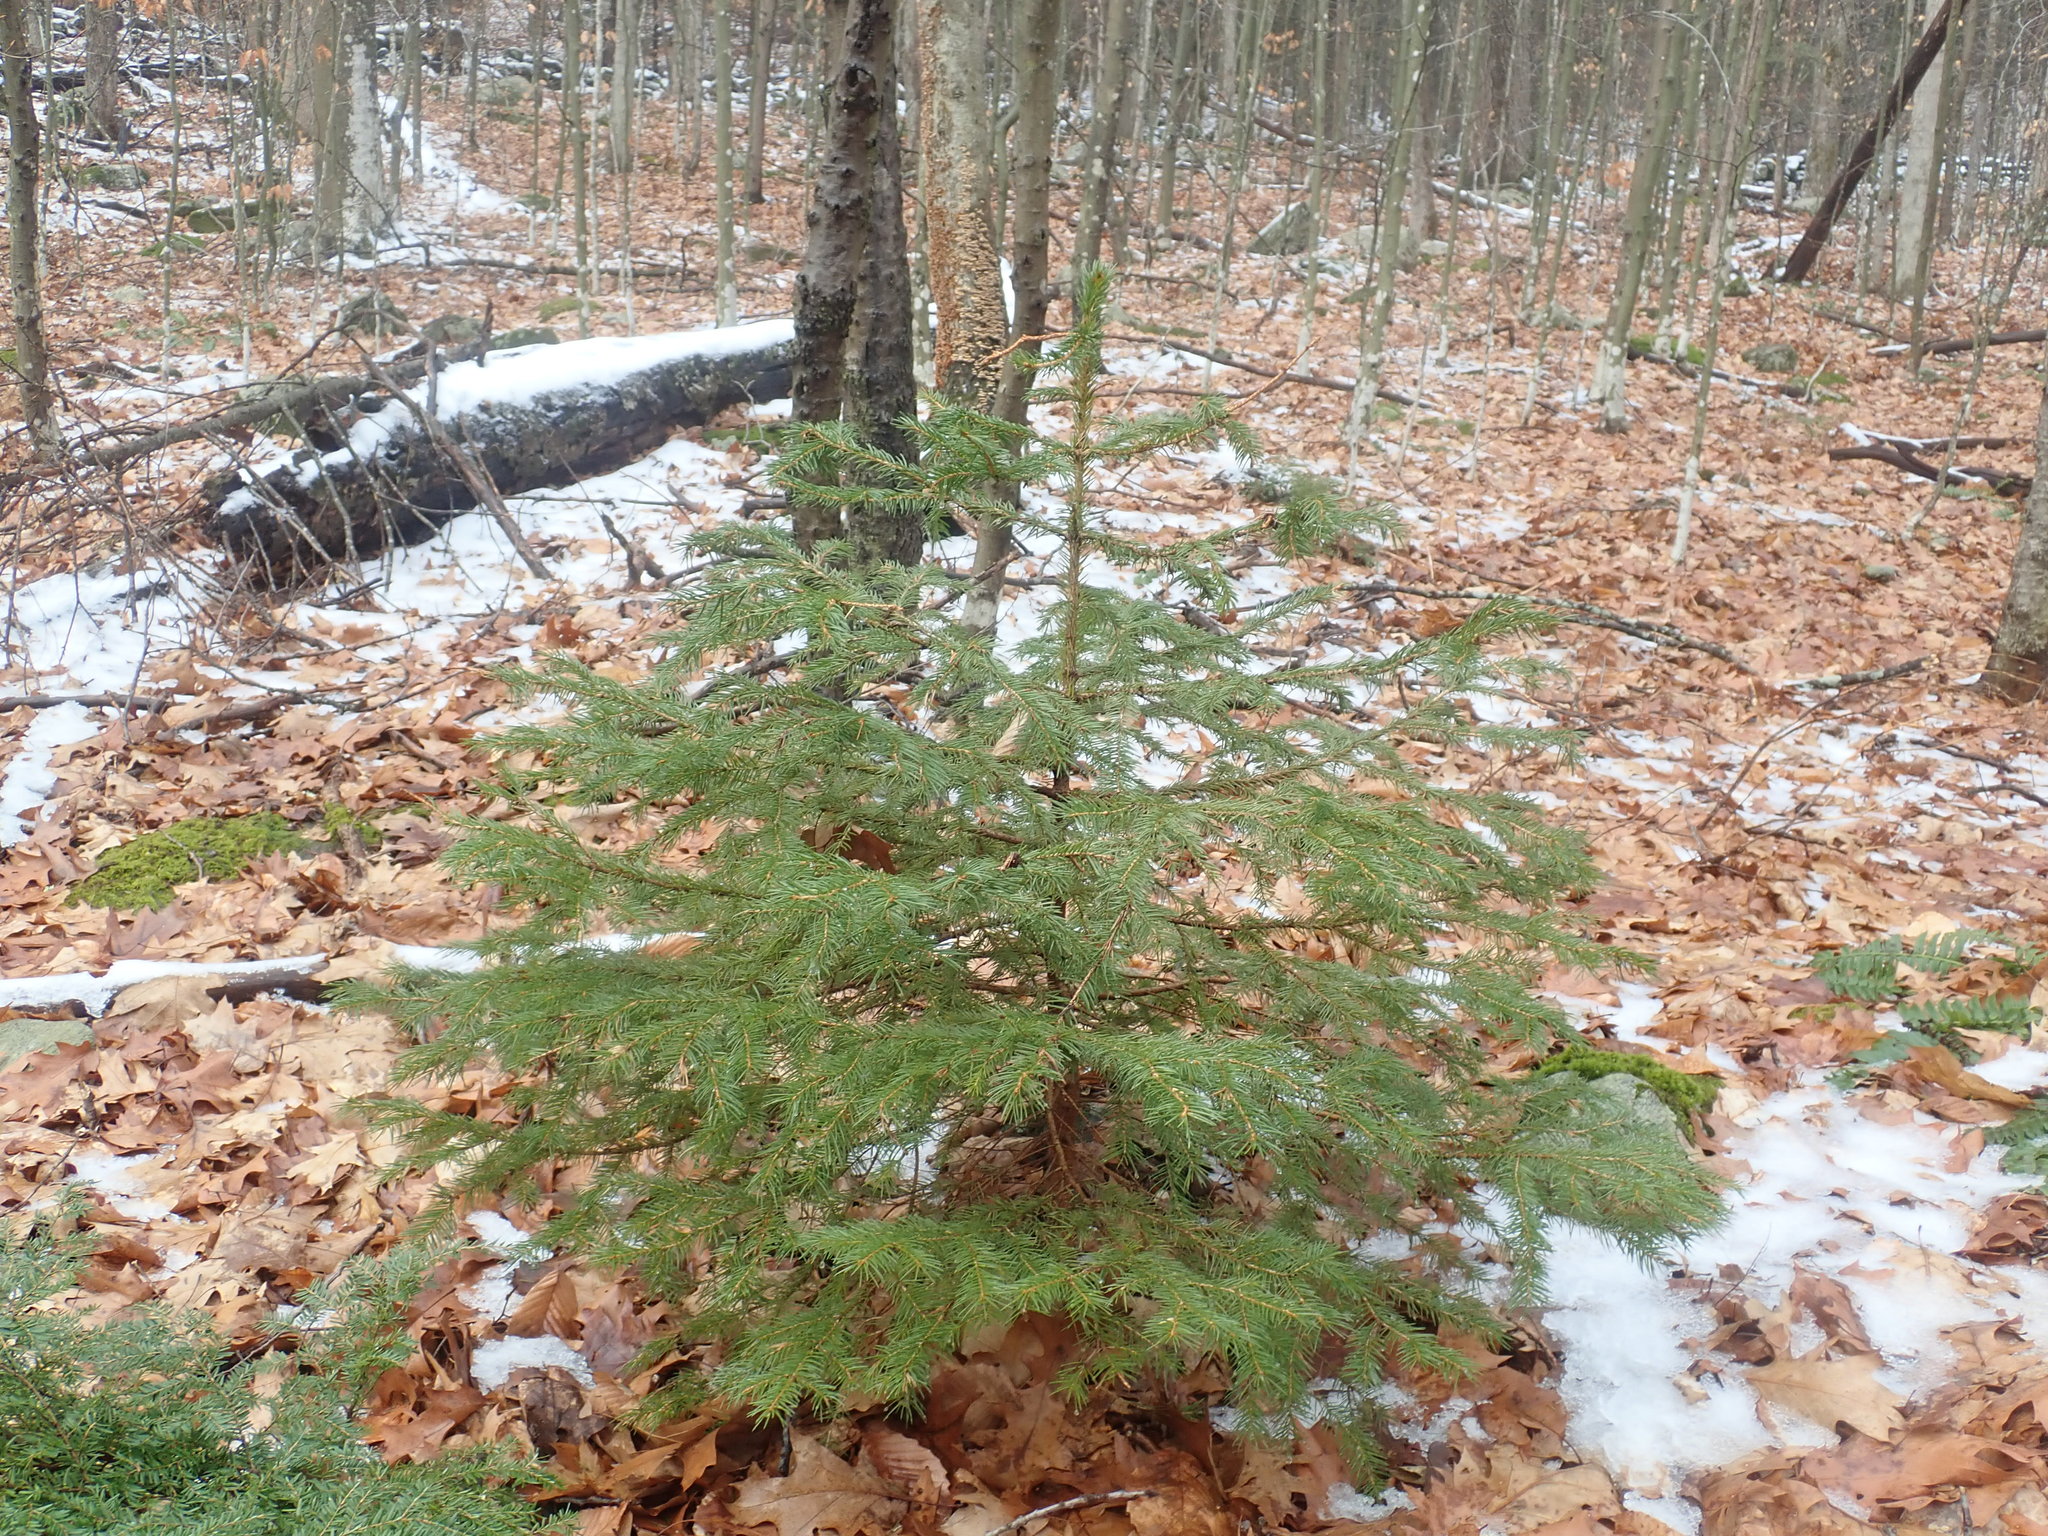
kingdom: Plantae
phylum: Tracheophyta
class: Pinopsida
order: Pinales
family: Pinaceae
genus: Picea
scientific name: Picea abies
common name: Norway spruce
